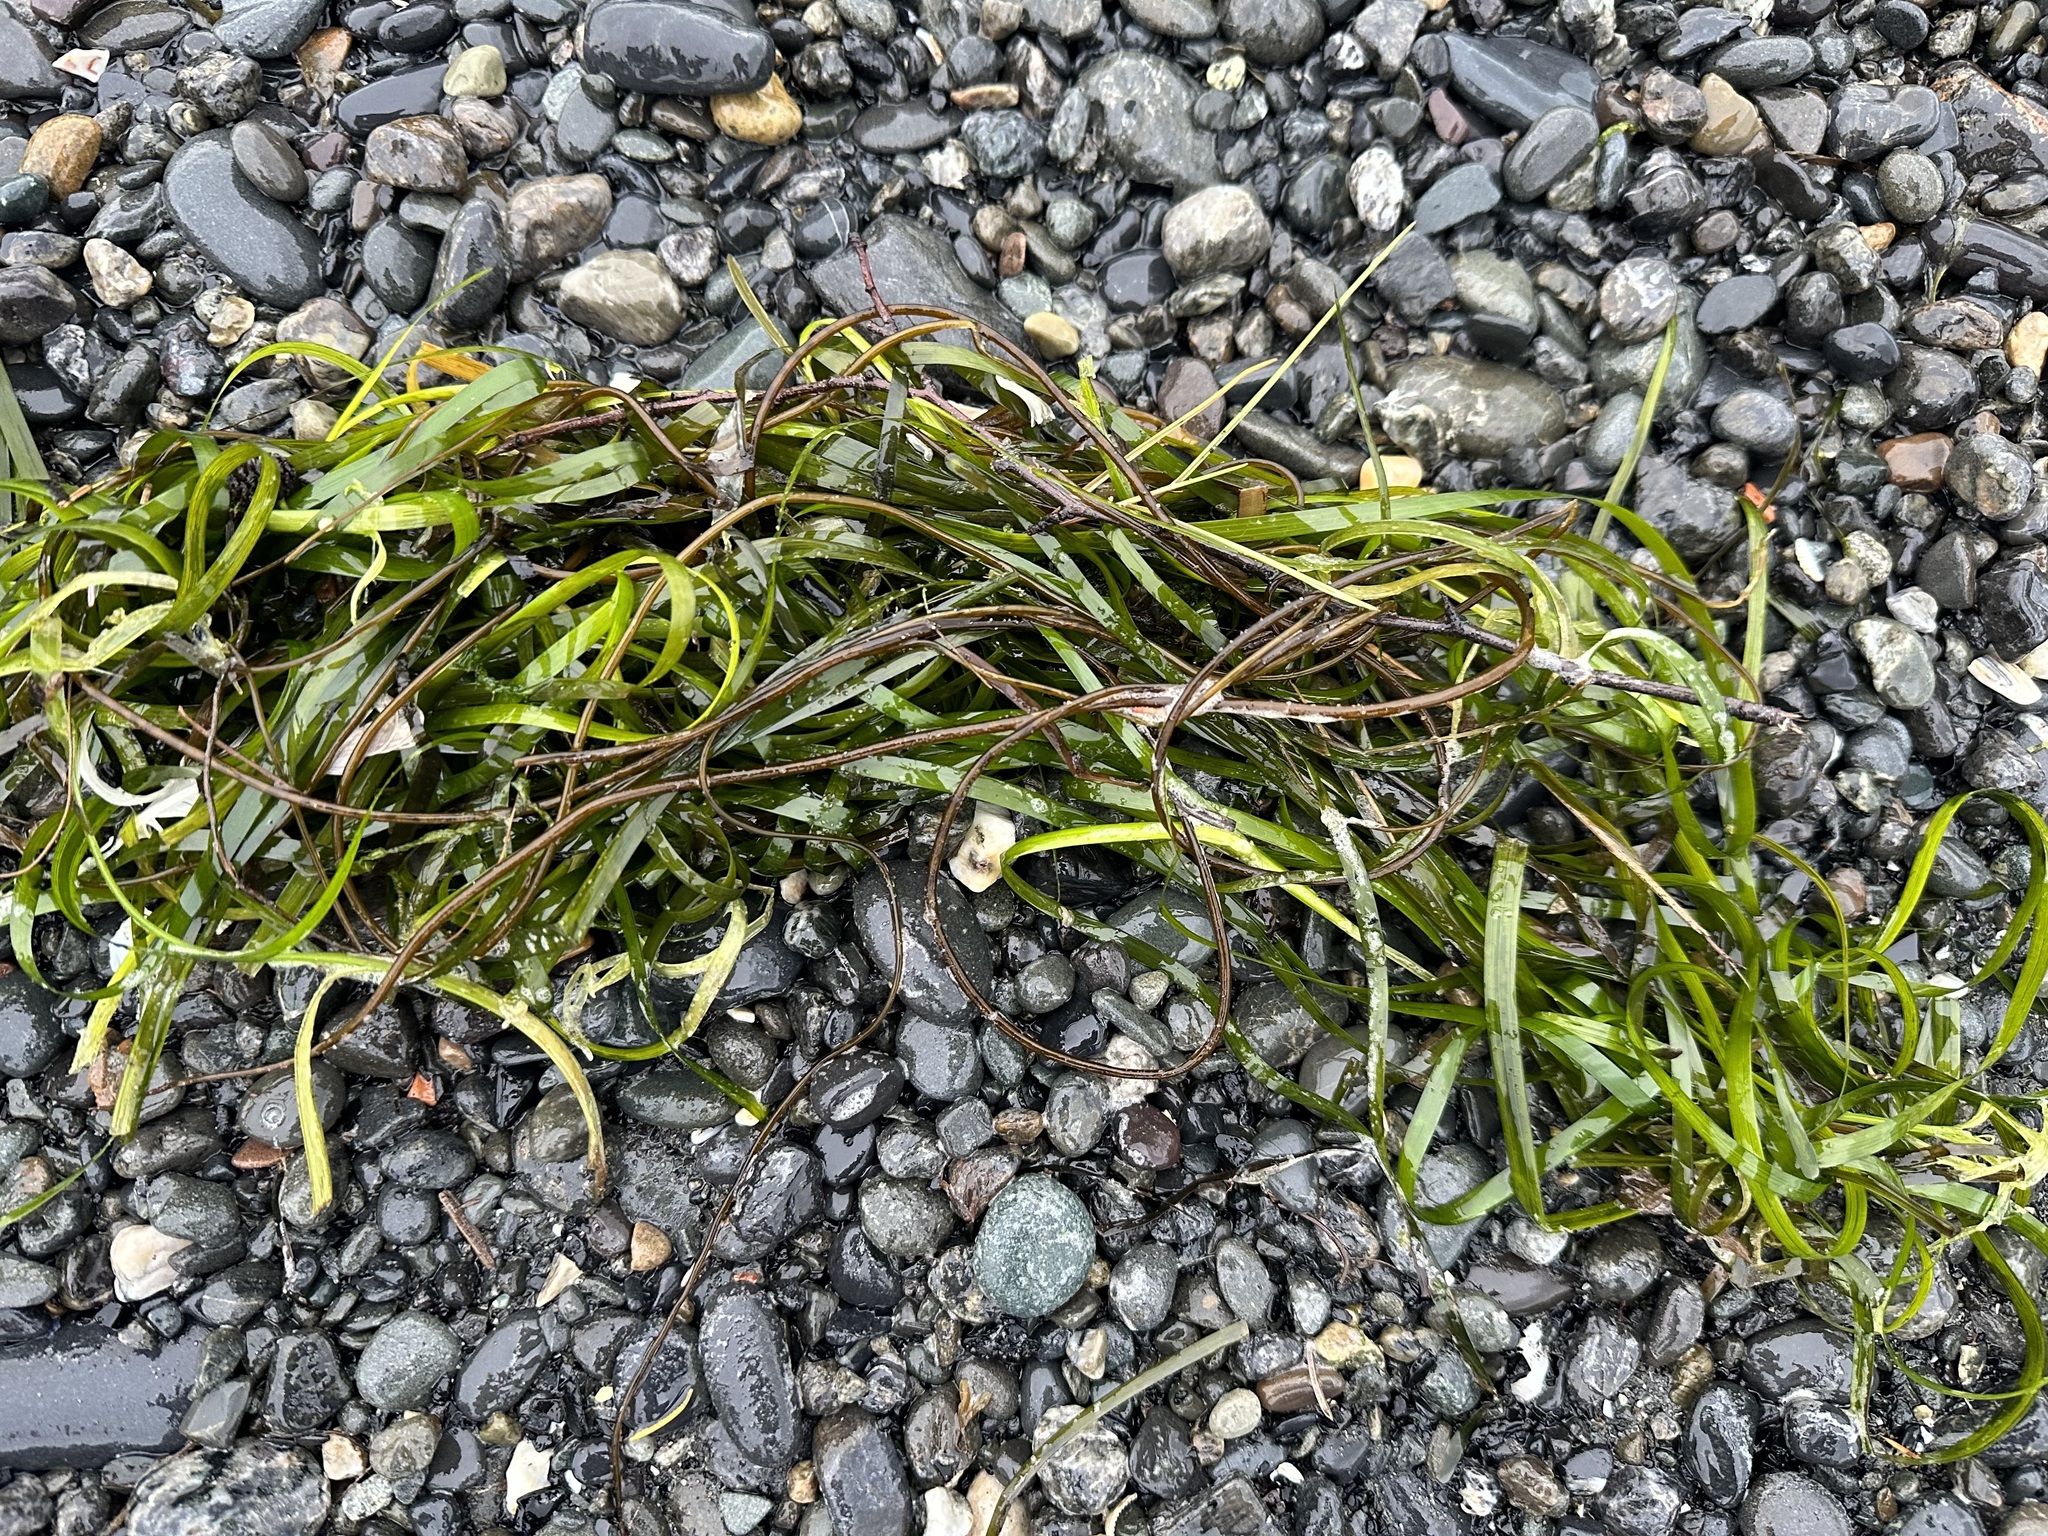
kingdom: Plantae
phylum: Tracheophyta
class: Liliopsida
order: Alismatales
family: Zosteraceae
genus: Zostera
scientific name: Zostera marina
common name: Eelgrass
